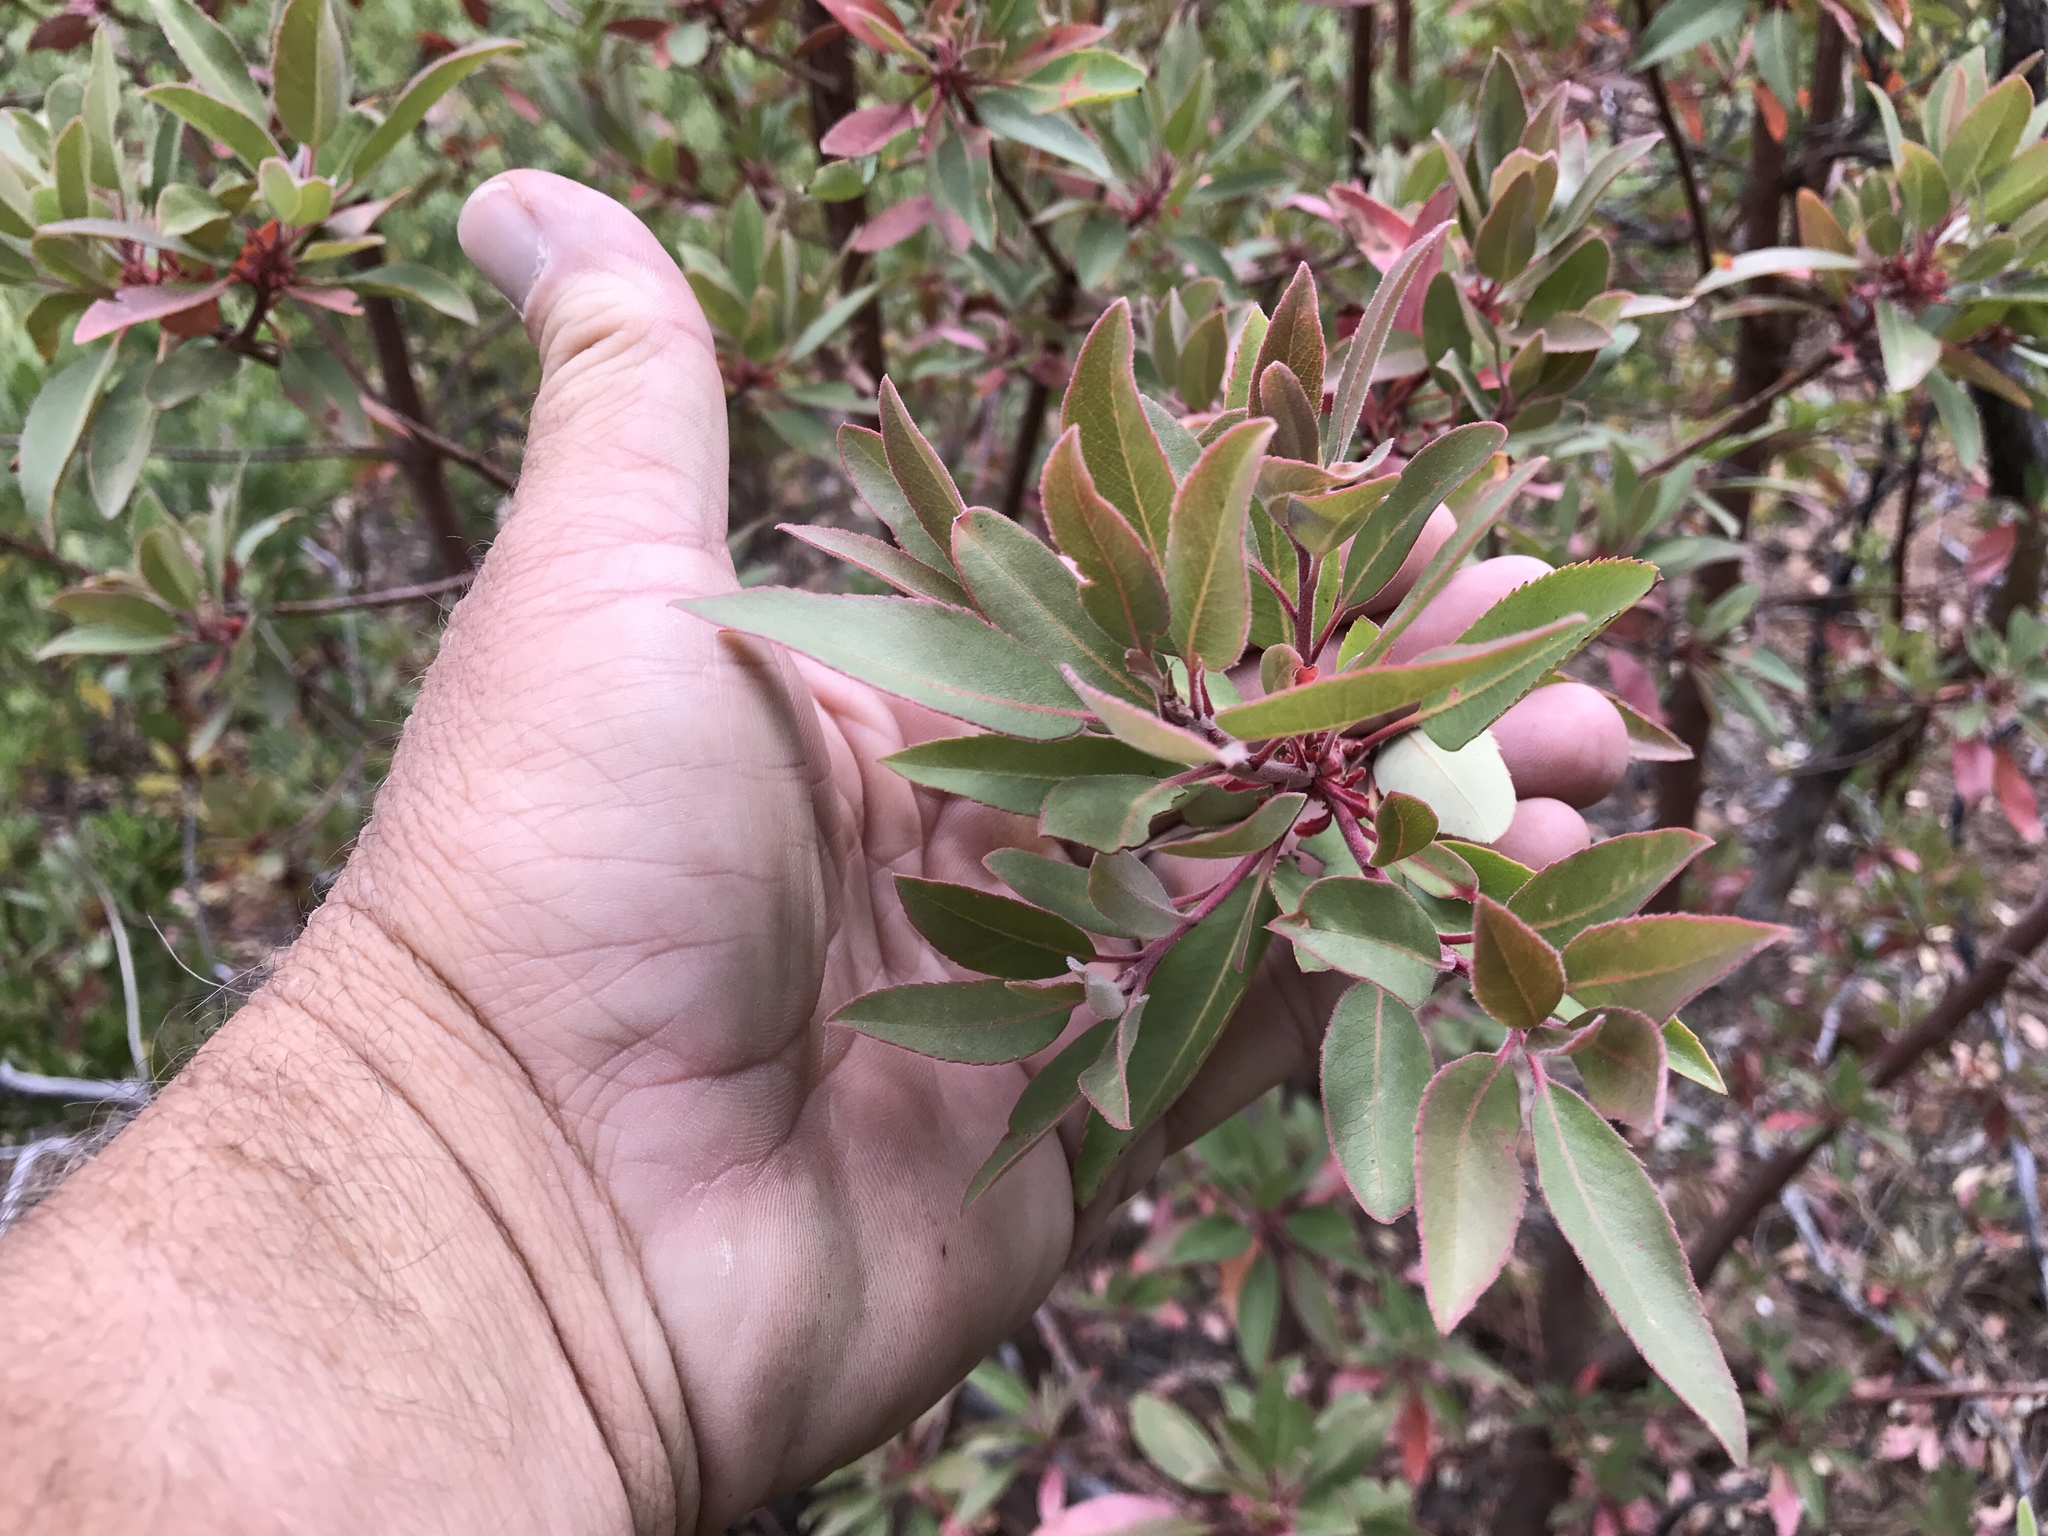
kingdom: Plantae
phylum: Tracheophyta
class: Magnoliopsida
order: Ericales
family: Ericaceae
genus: Arbutus
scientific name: Arbutus arizonica
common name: Arizona madrone
